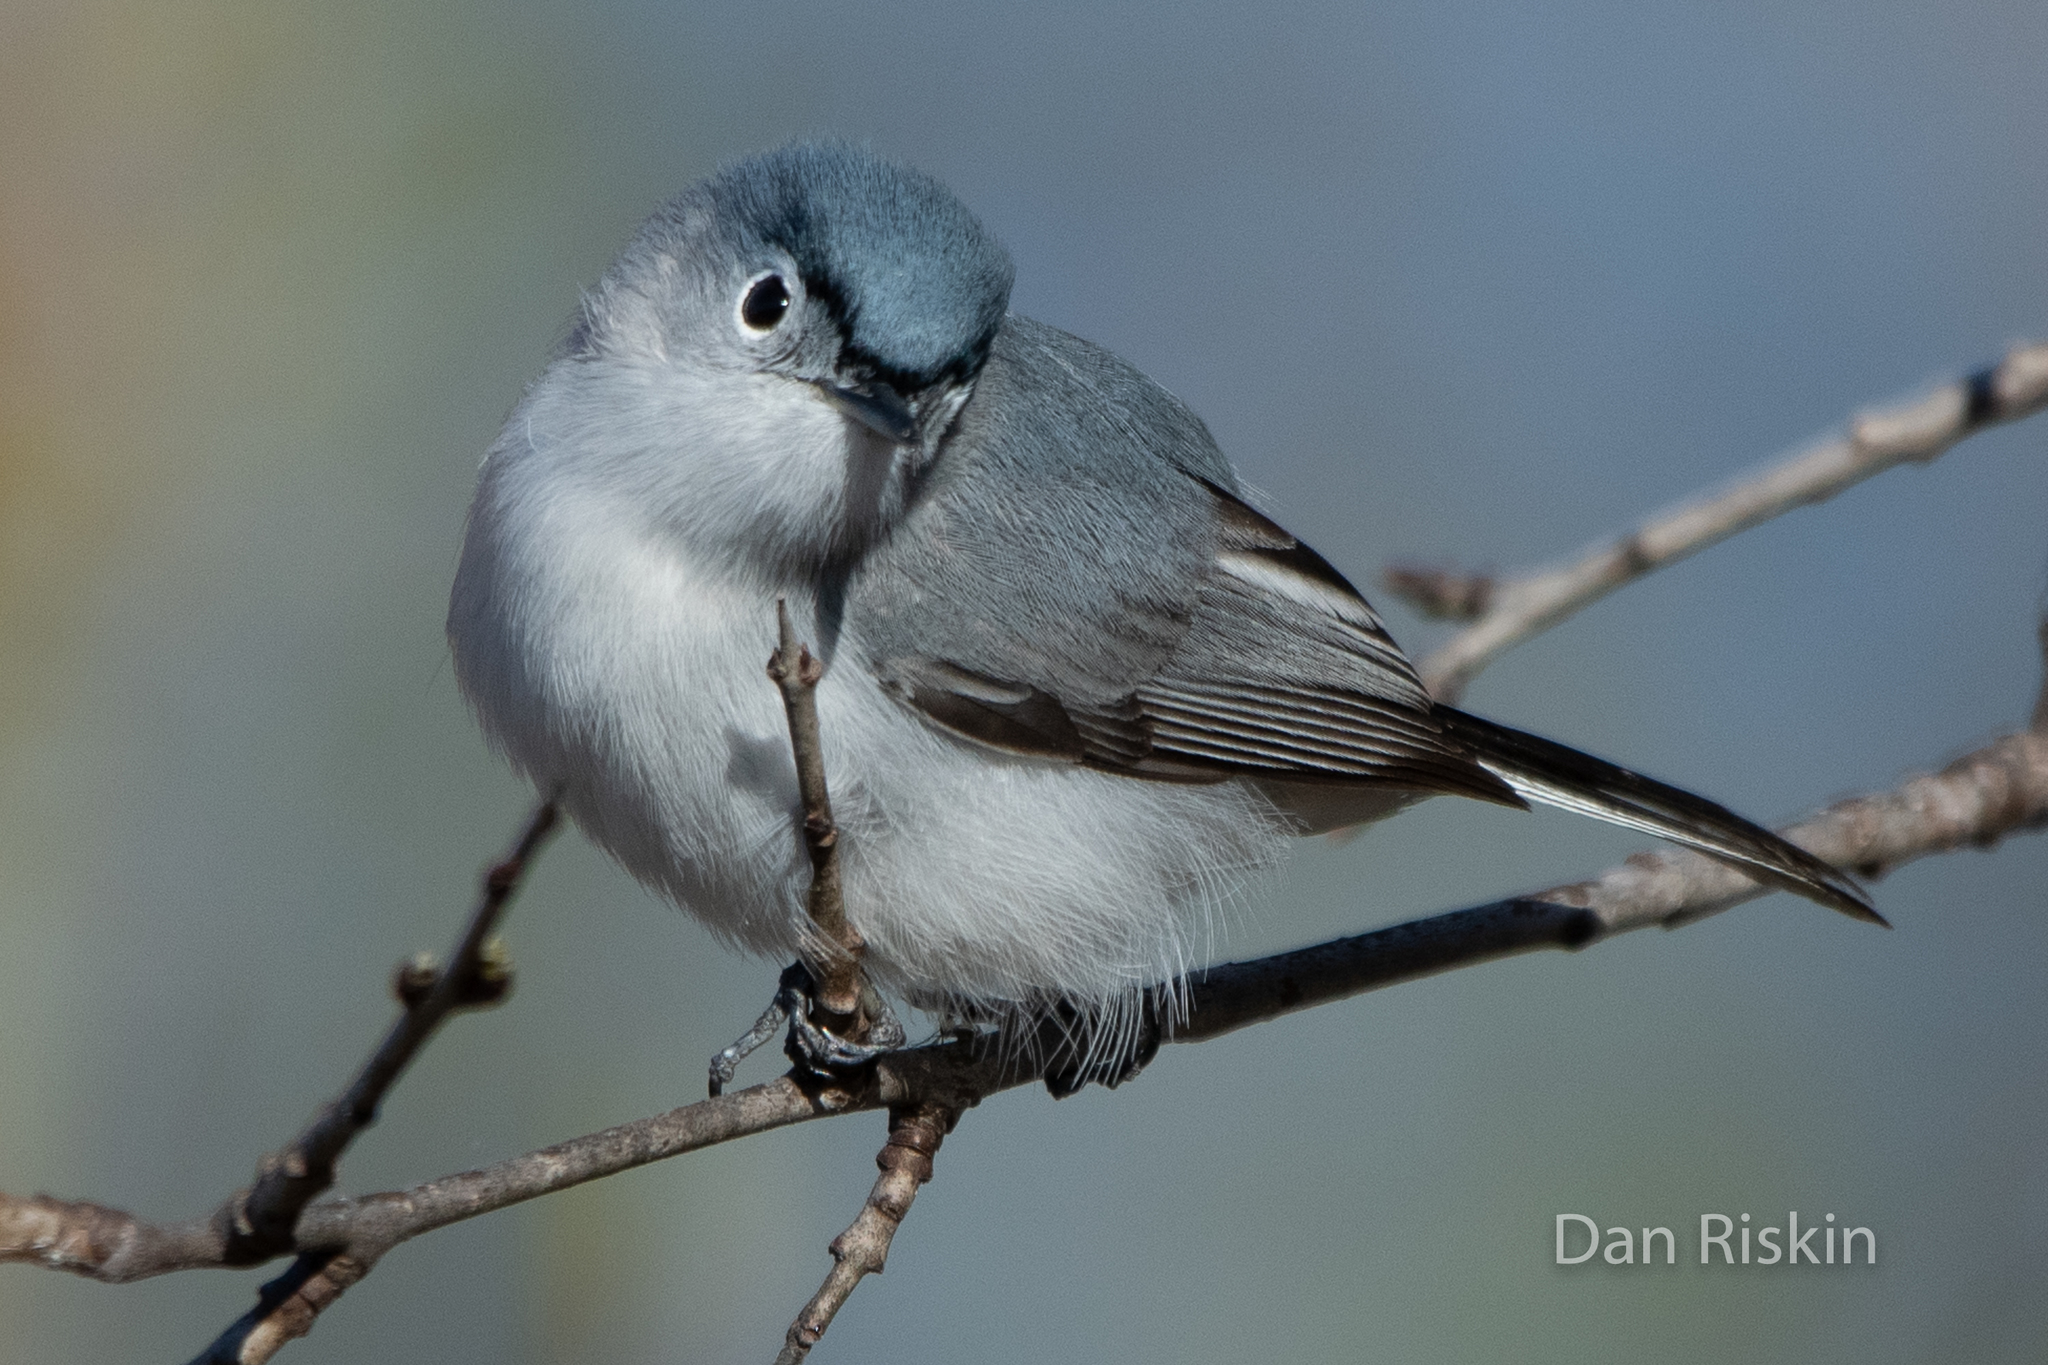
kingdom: Animalia
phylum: Chordata
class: Aves
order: Passeriformes
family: Polioptilidae
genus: Polioptila
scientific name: Polioptila caerulea
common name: Blue-gray gnatcatcher
